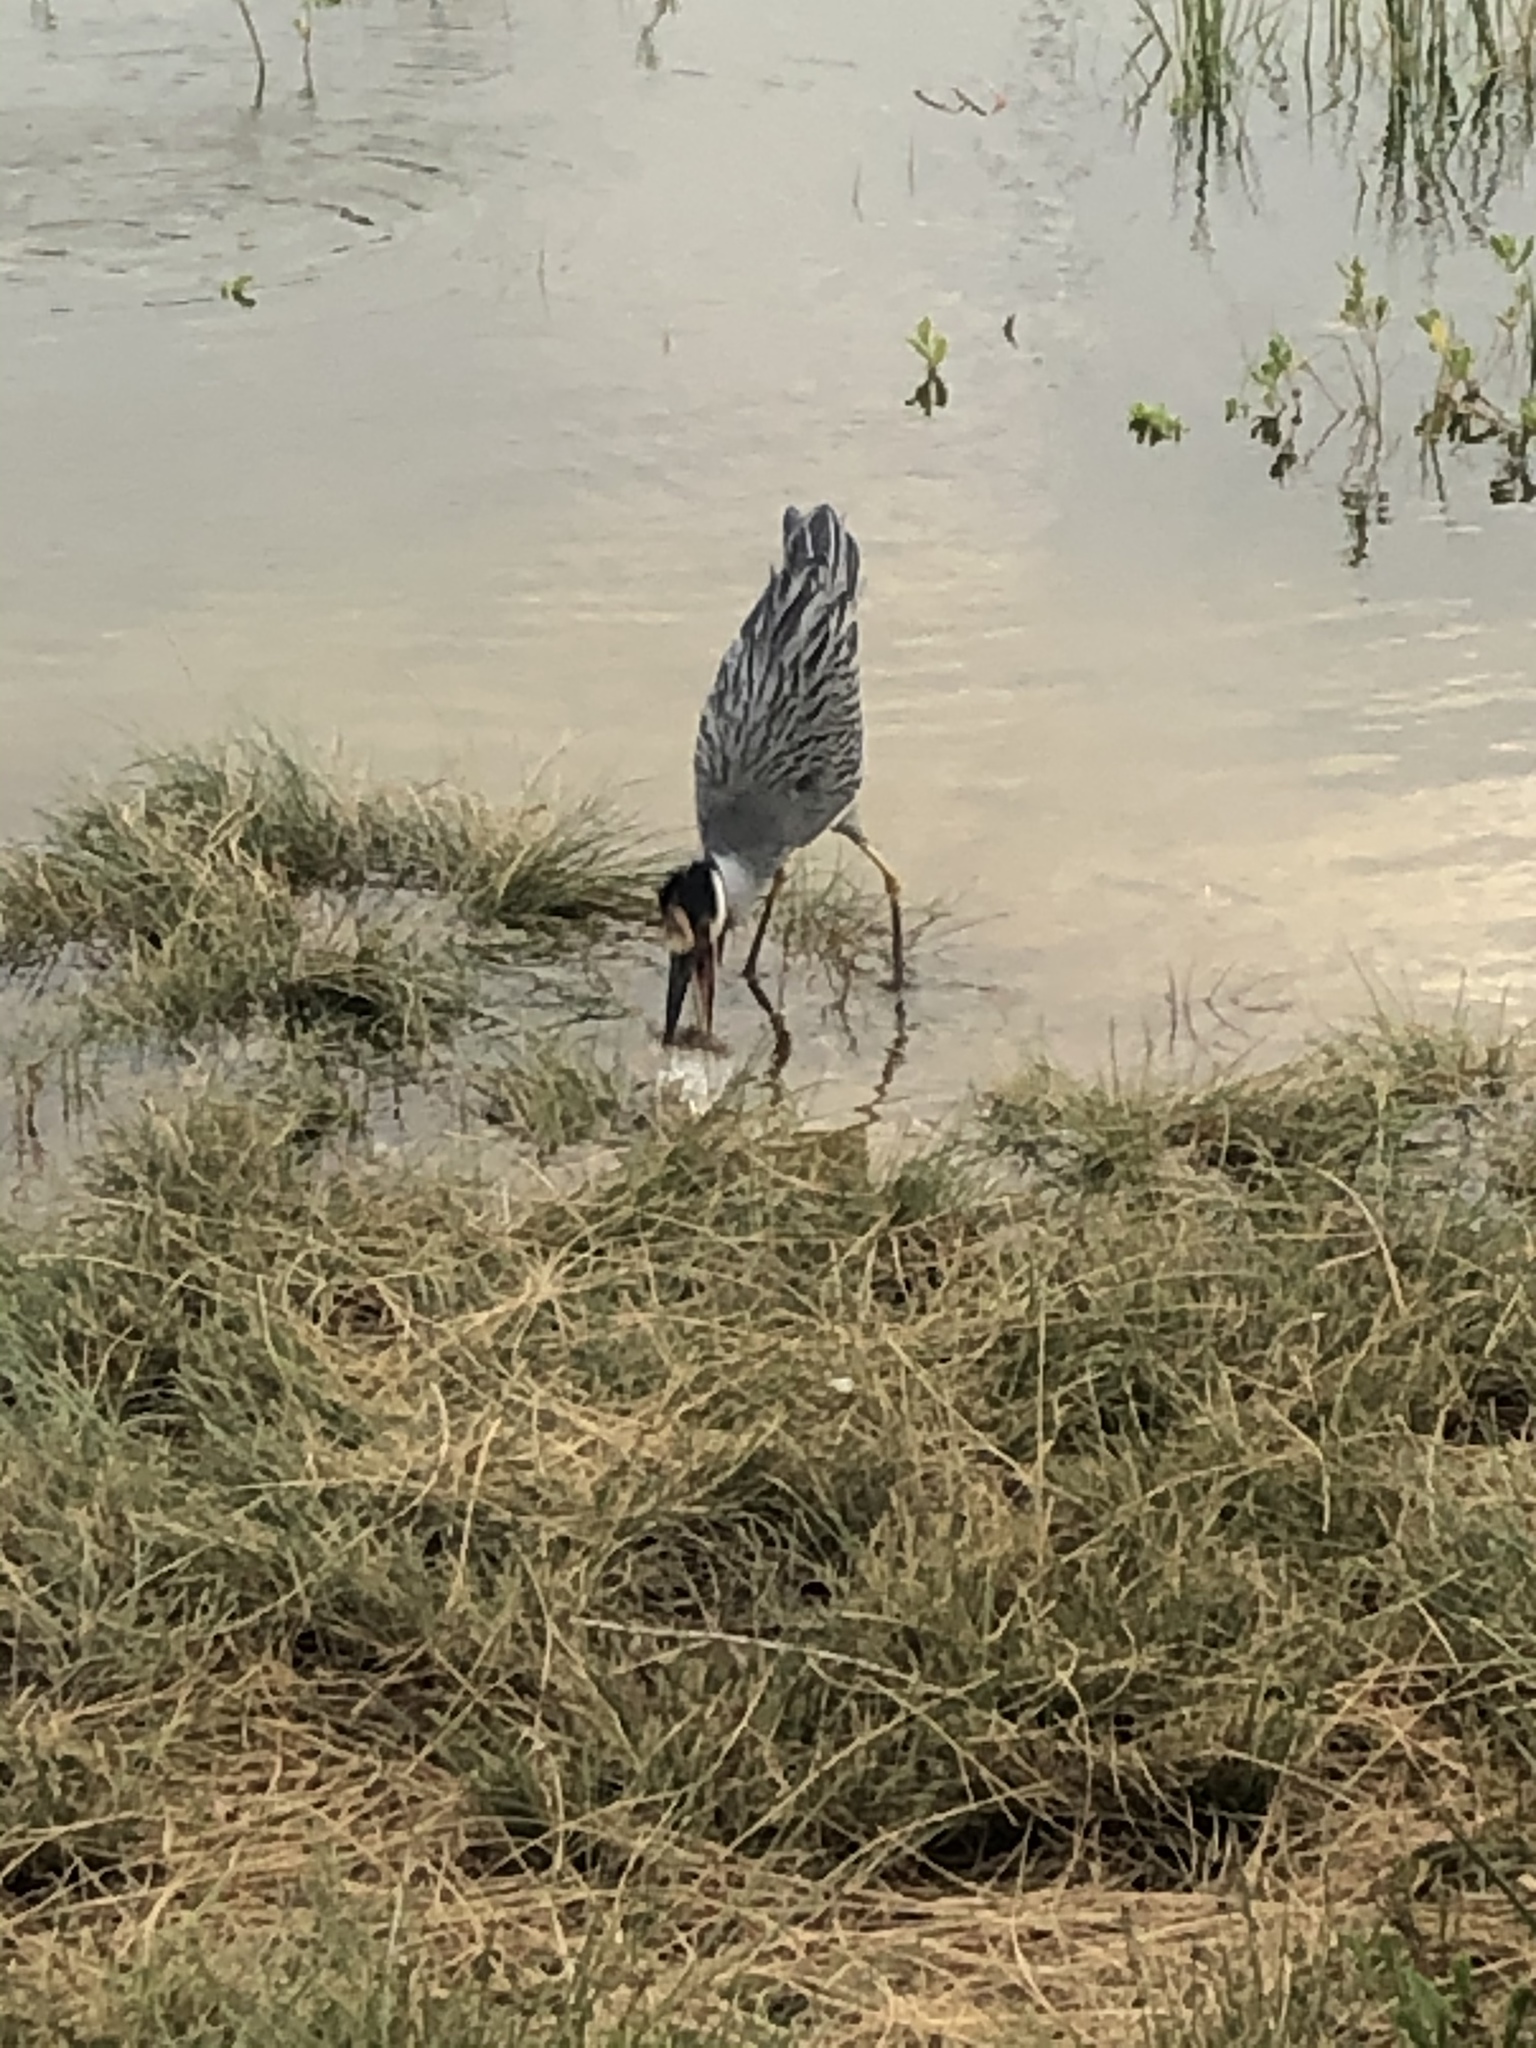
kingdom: Animalia
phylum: Chordata
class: Aves
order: Pelecaniformes
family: Ardeidae
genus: Nyctanassa
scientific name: Nyctanassa violacea
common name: Yellow-crowned night heron
